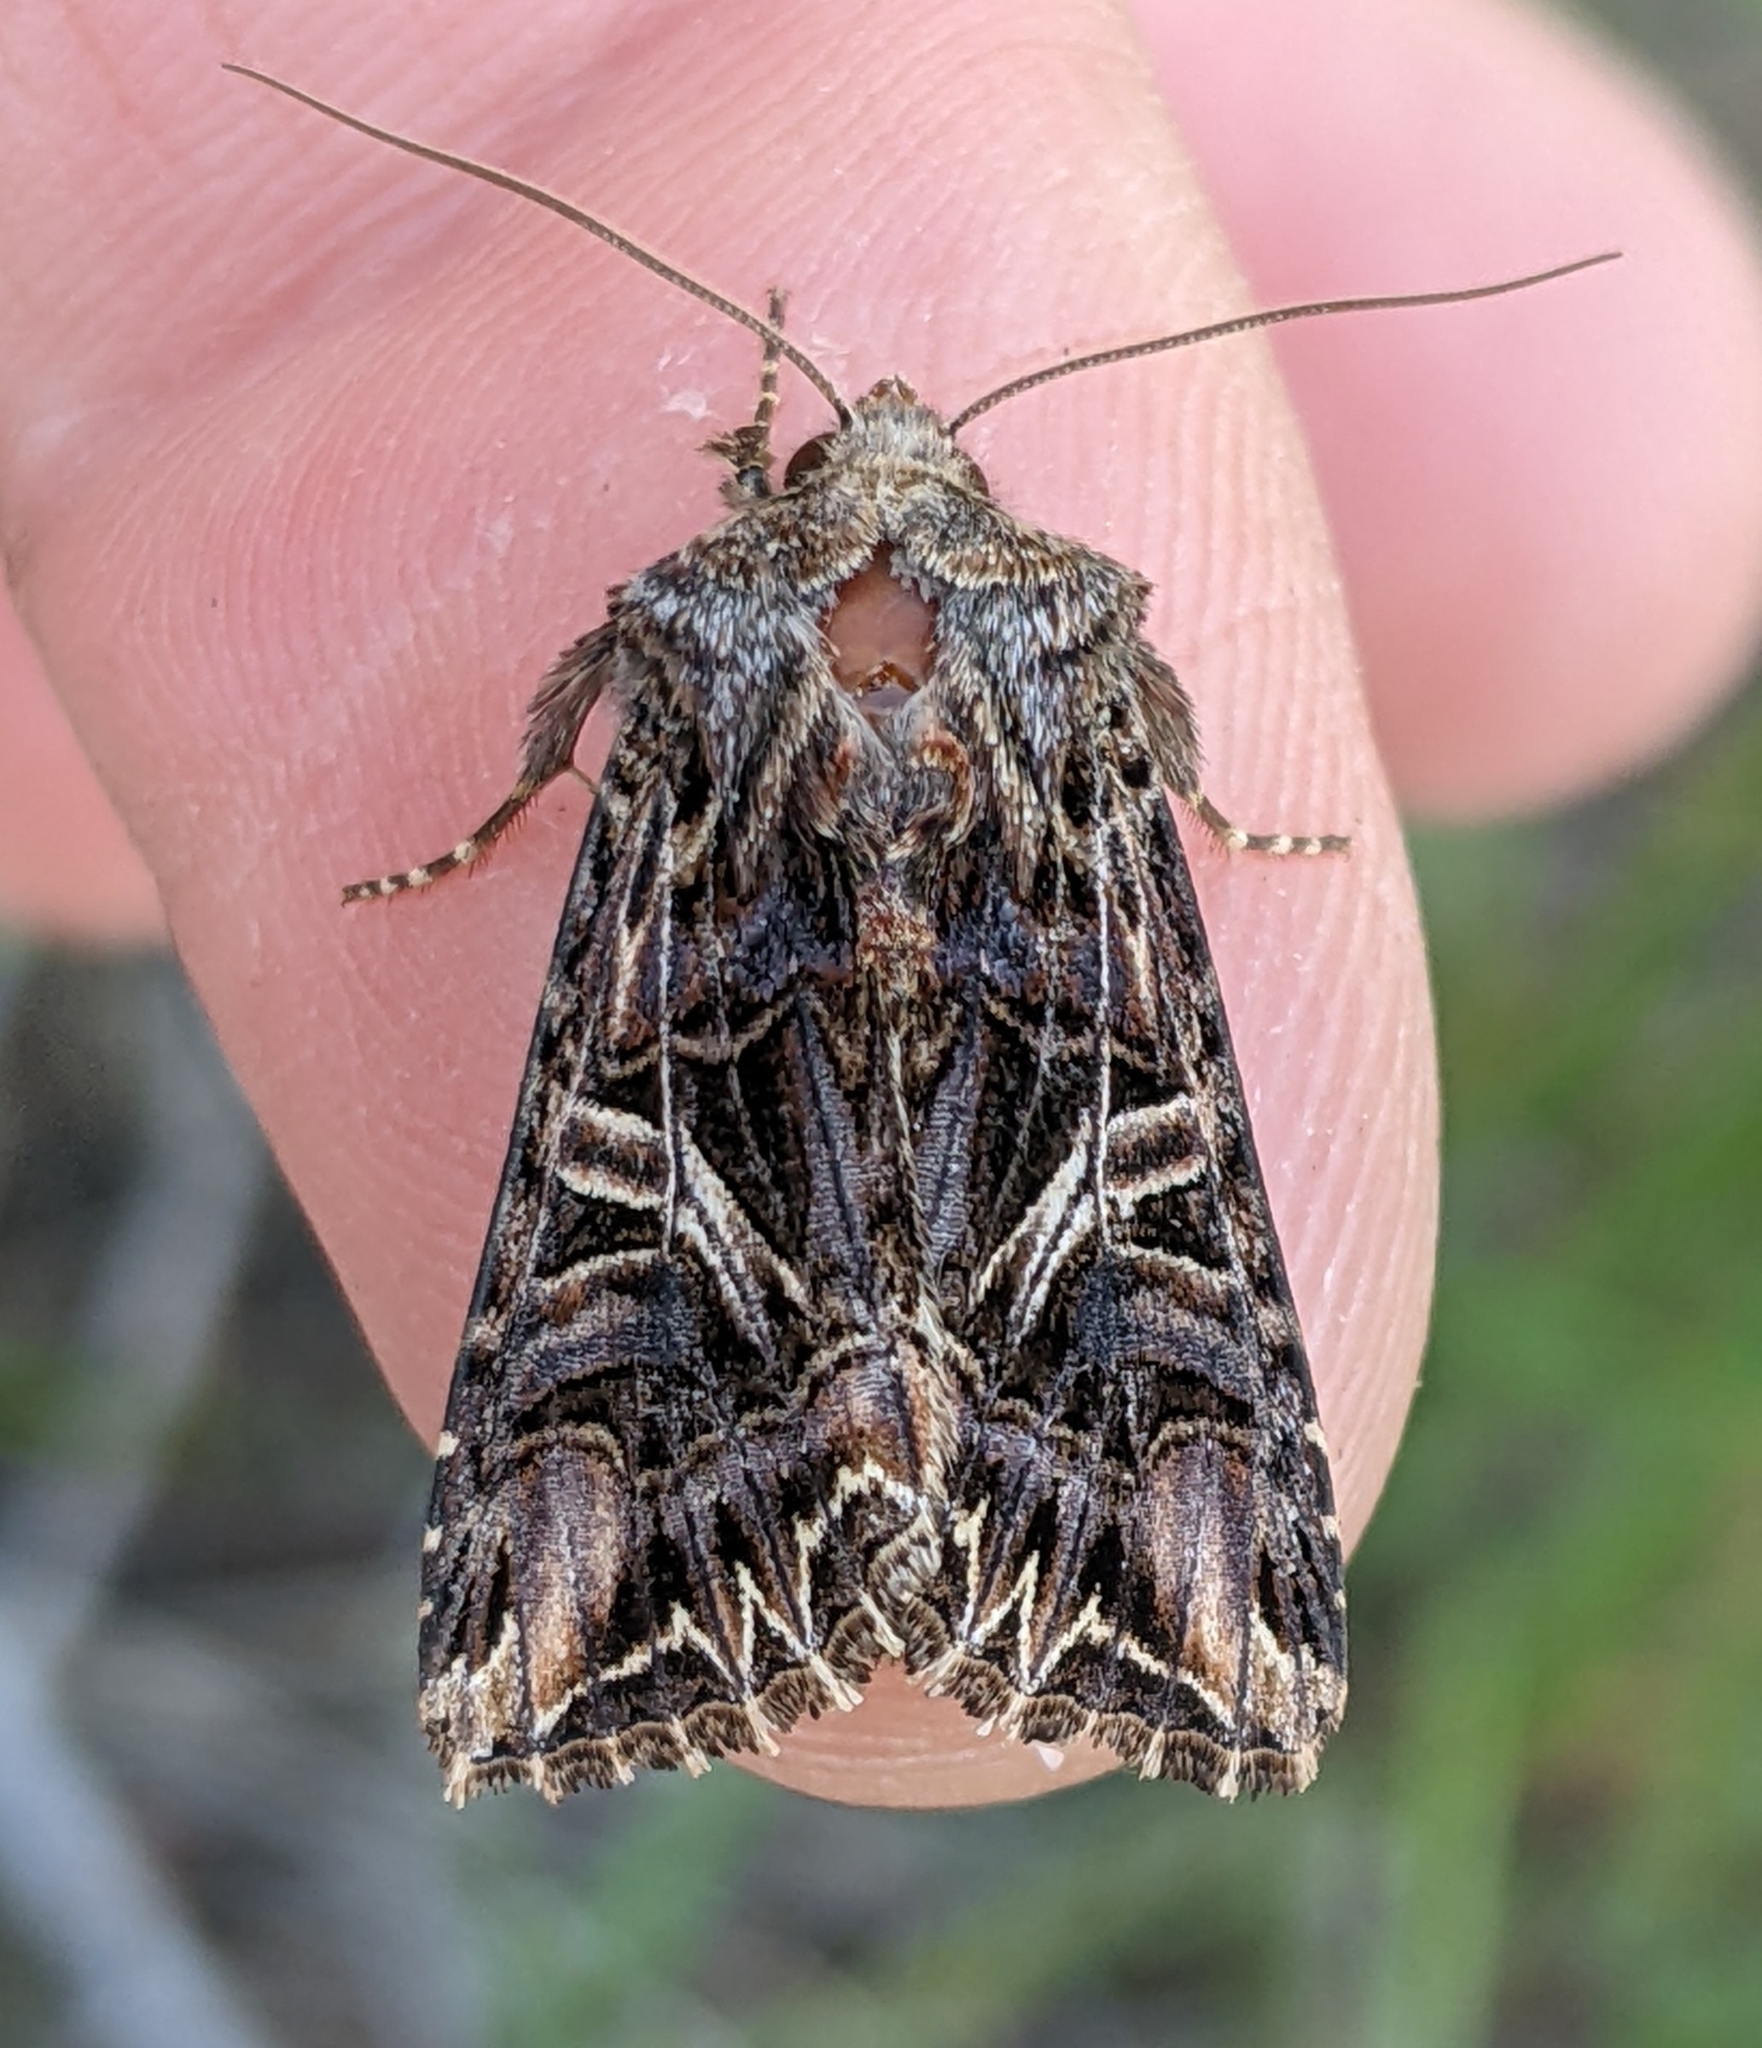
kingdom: Animalia
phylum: Arthropoda
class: Insecta
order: Lepidoptera
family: Noctuidae
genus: Anarta
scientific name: Anarta farnhami
